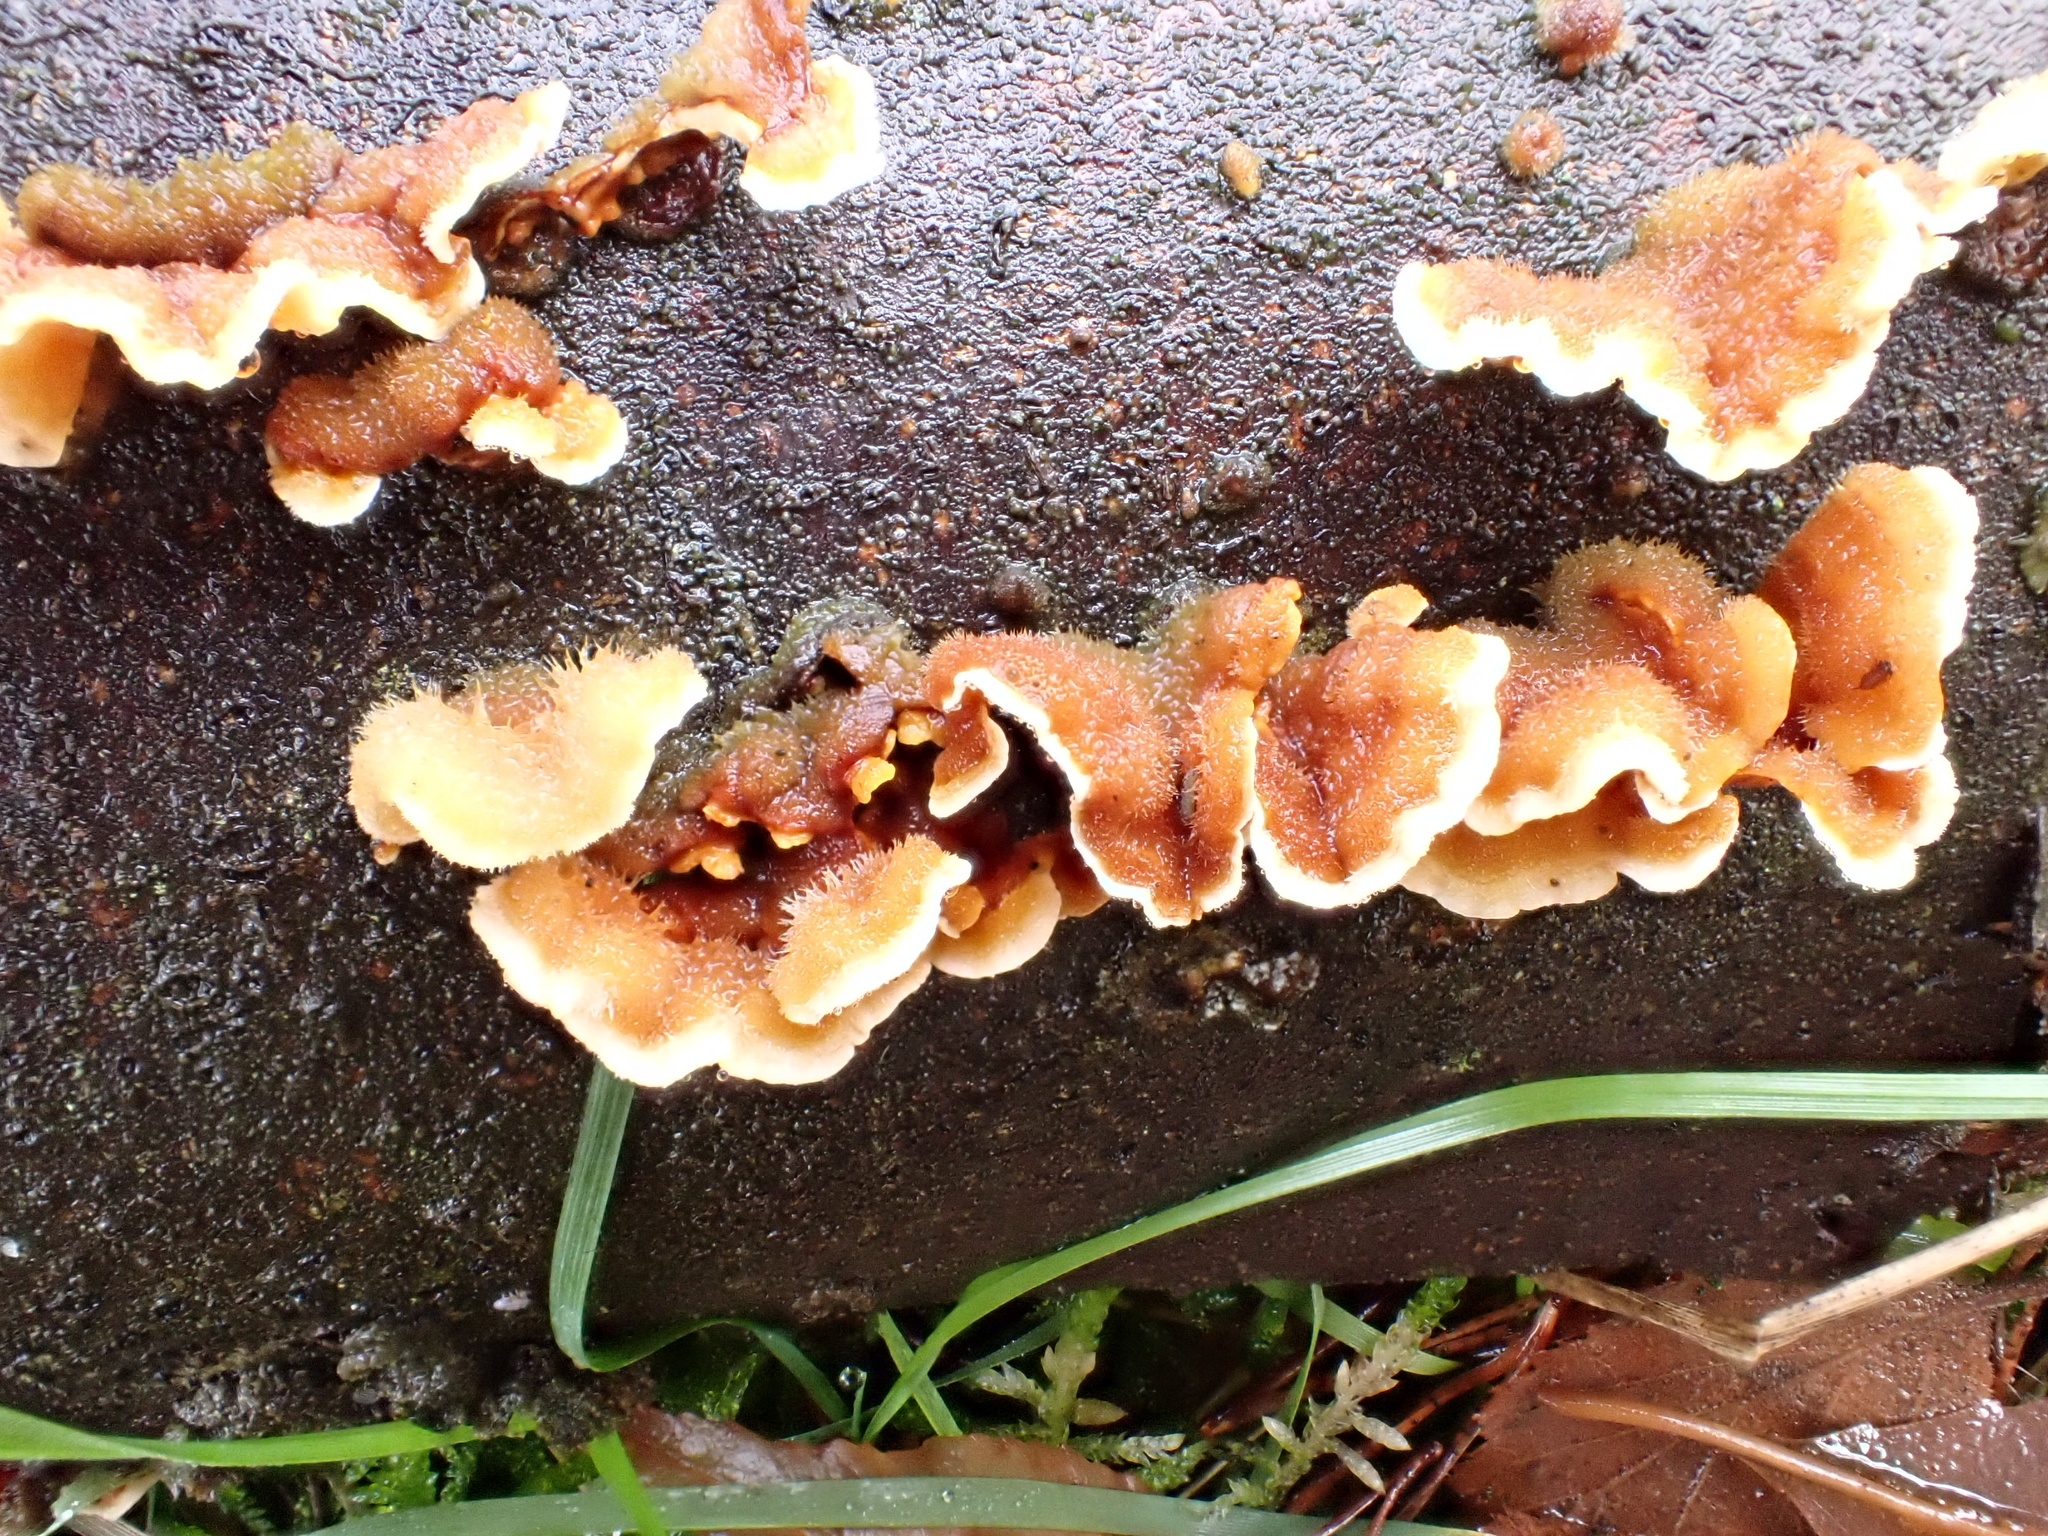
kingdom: Fungi
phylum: Basidiomycota
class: Agaricomycetes
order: Russulales
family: Stereaceae
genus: Stereum
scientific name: Stereum hirsutum
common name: Hairy curtain crust
